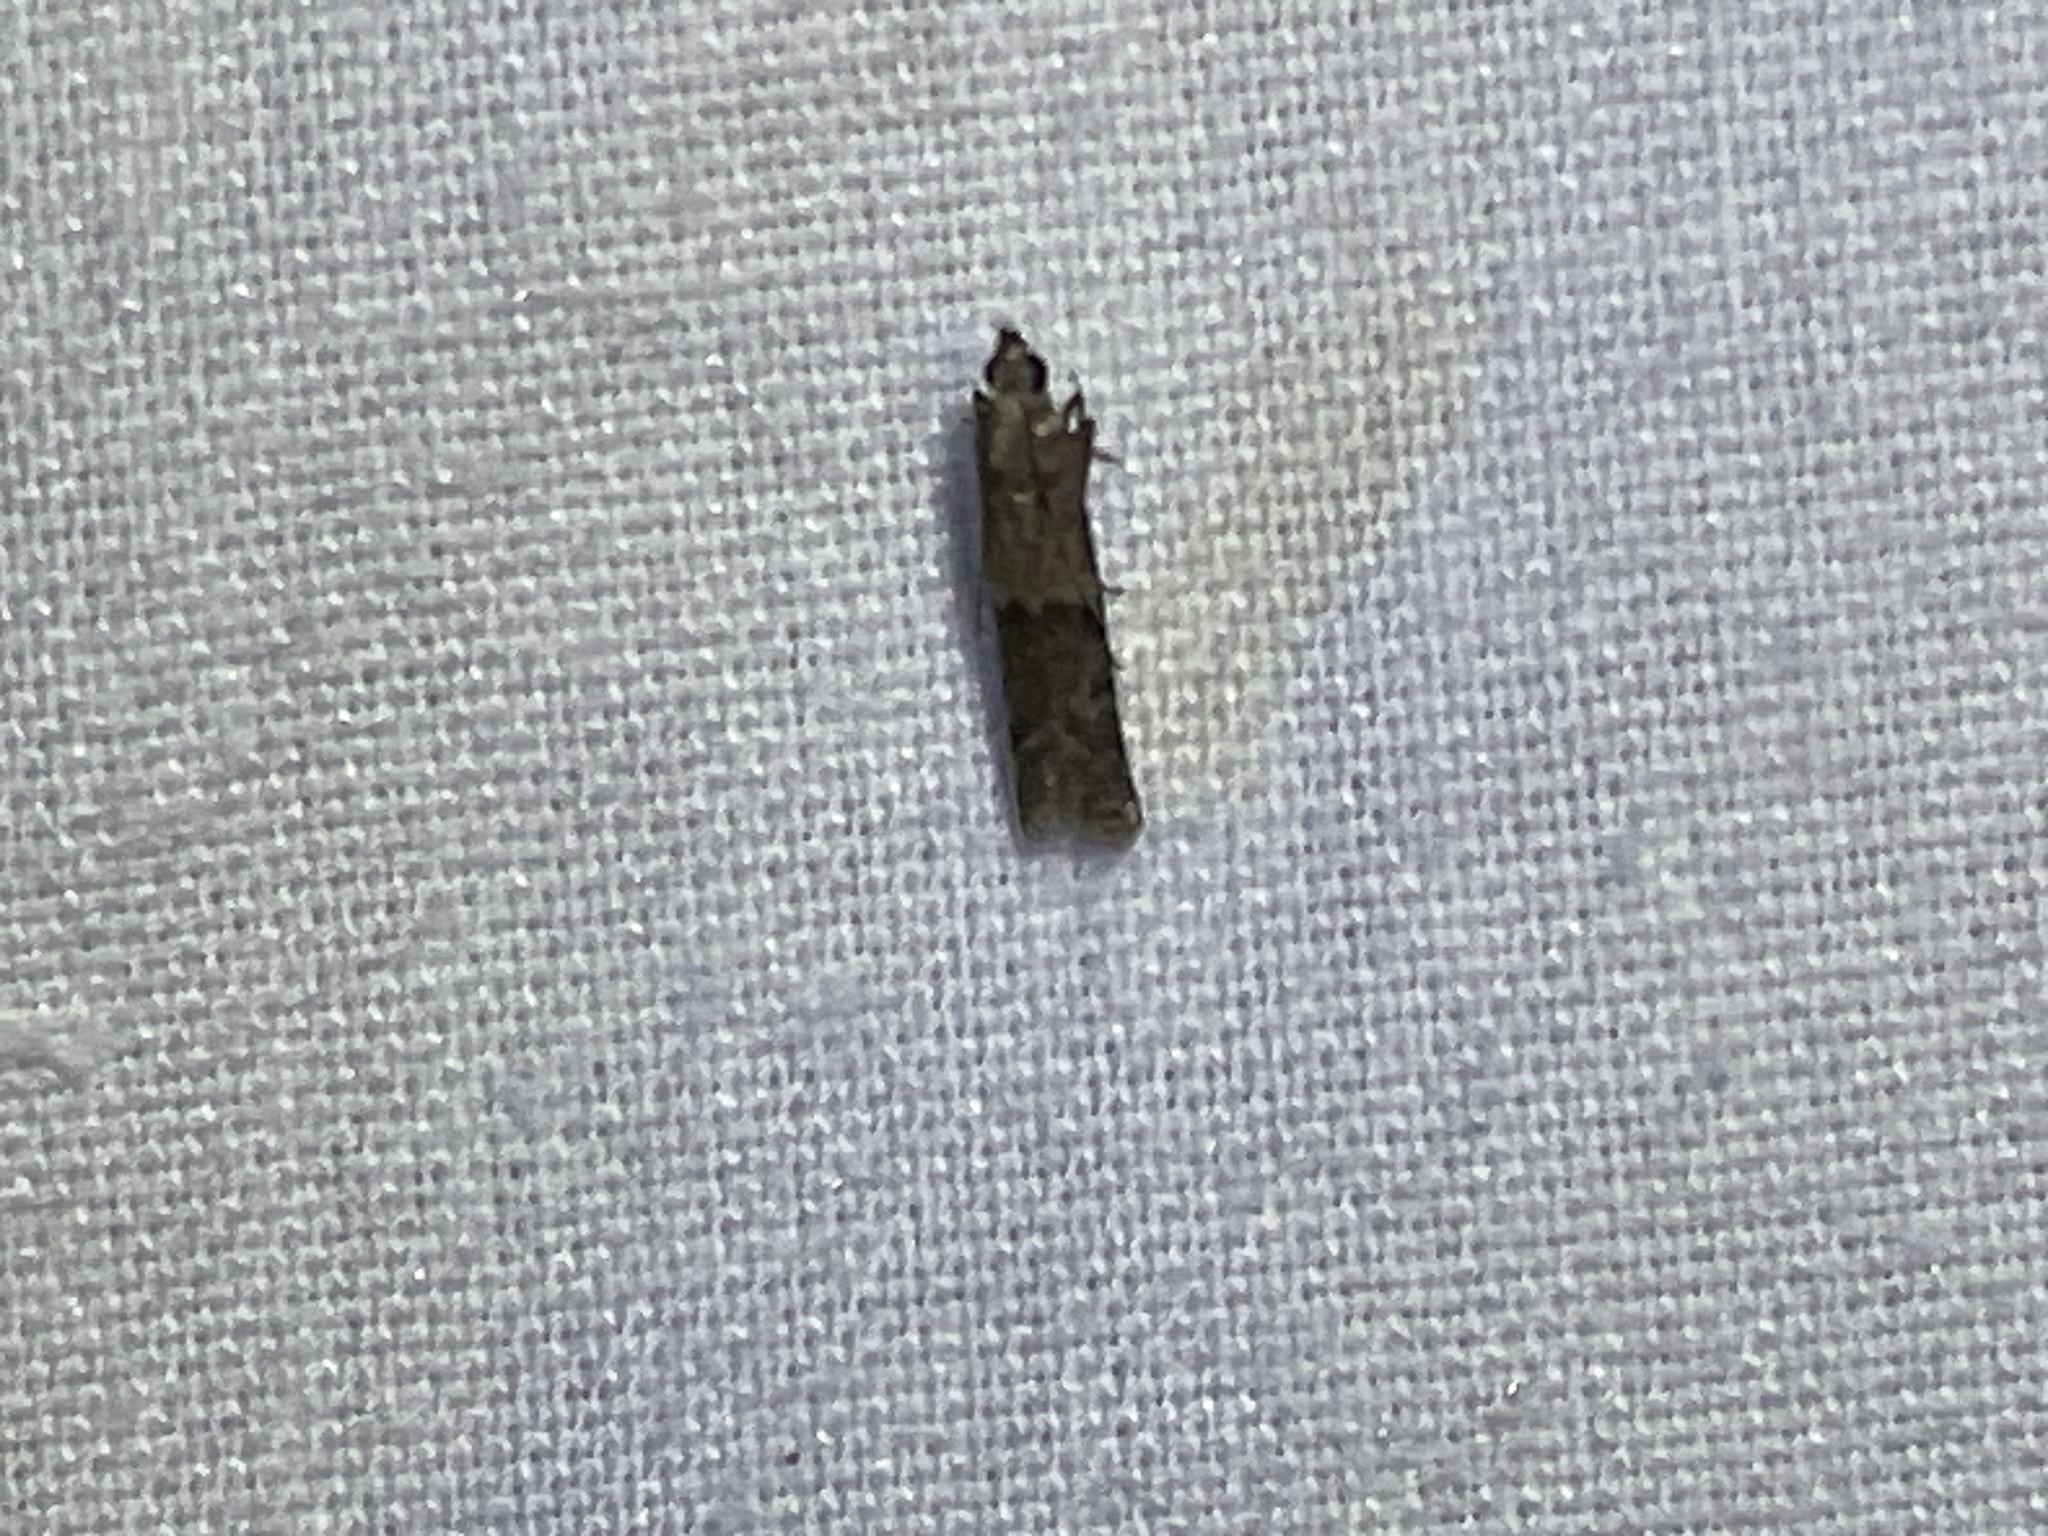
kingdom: Animalia
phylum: Arthropoda
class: Insecta
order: Lepidoptera
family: Pyralidae
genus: Ephestiodes
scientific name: Ephestiodes infimella
